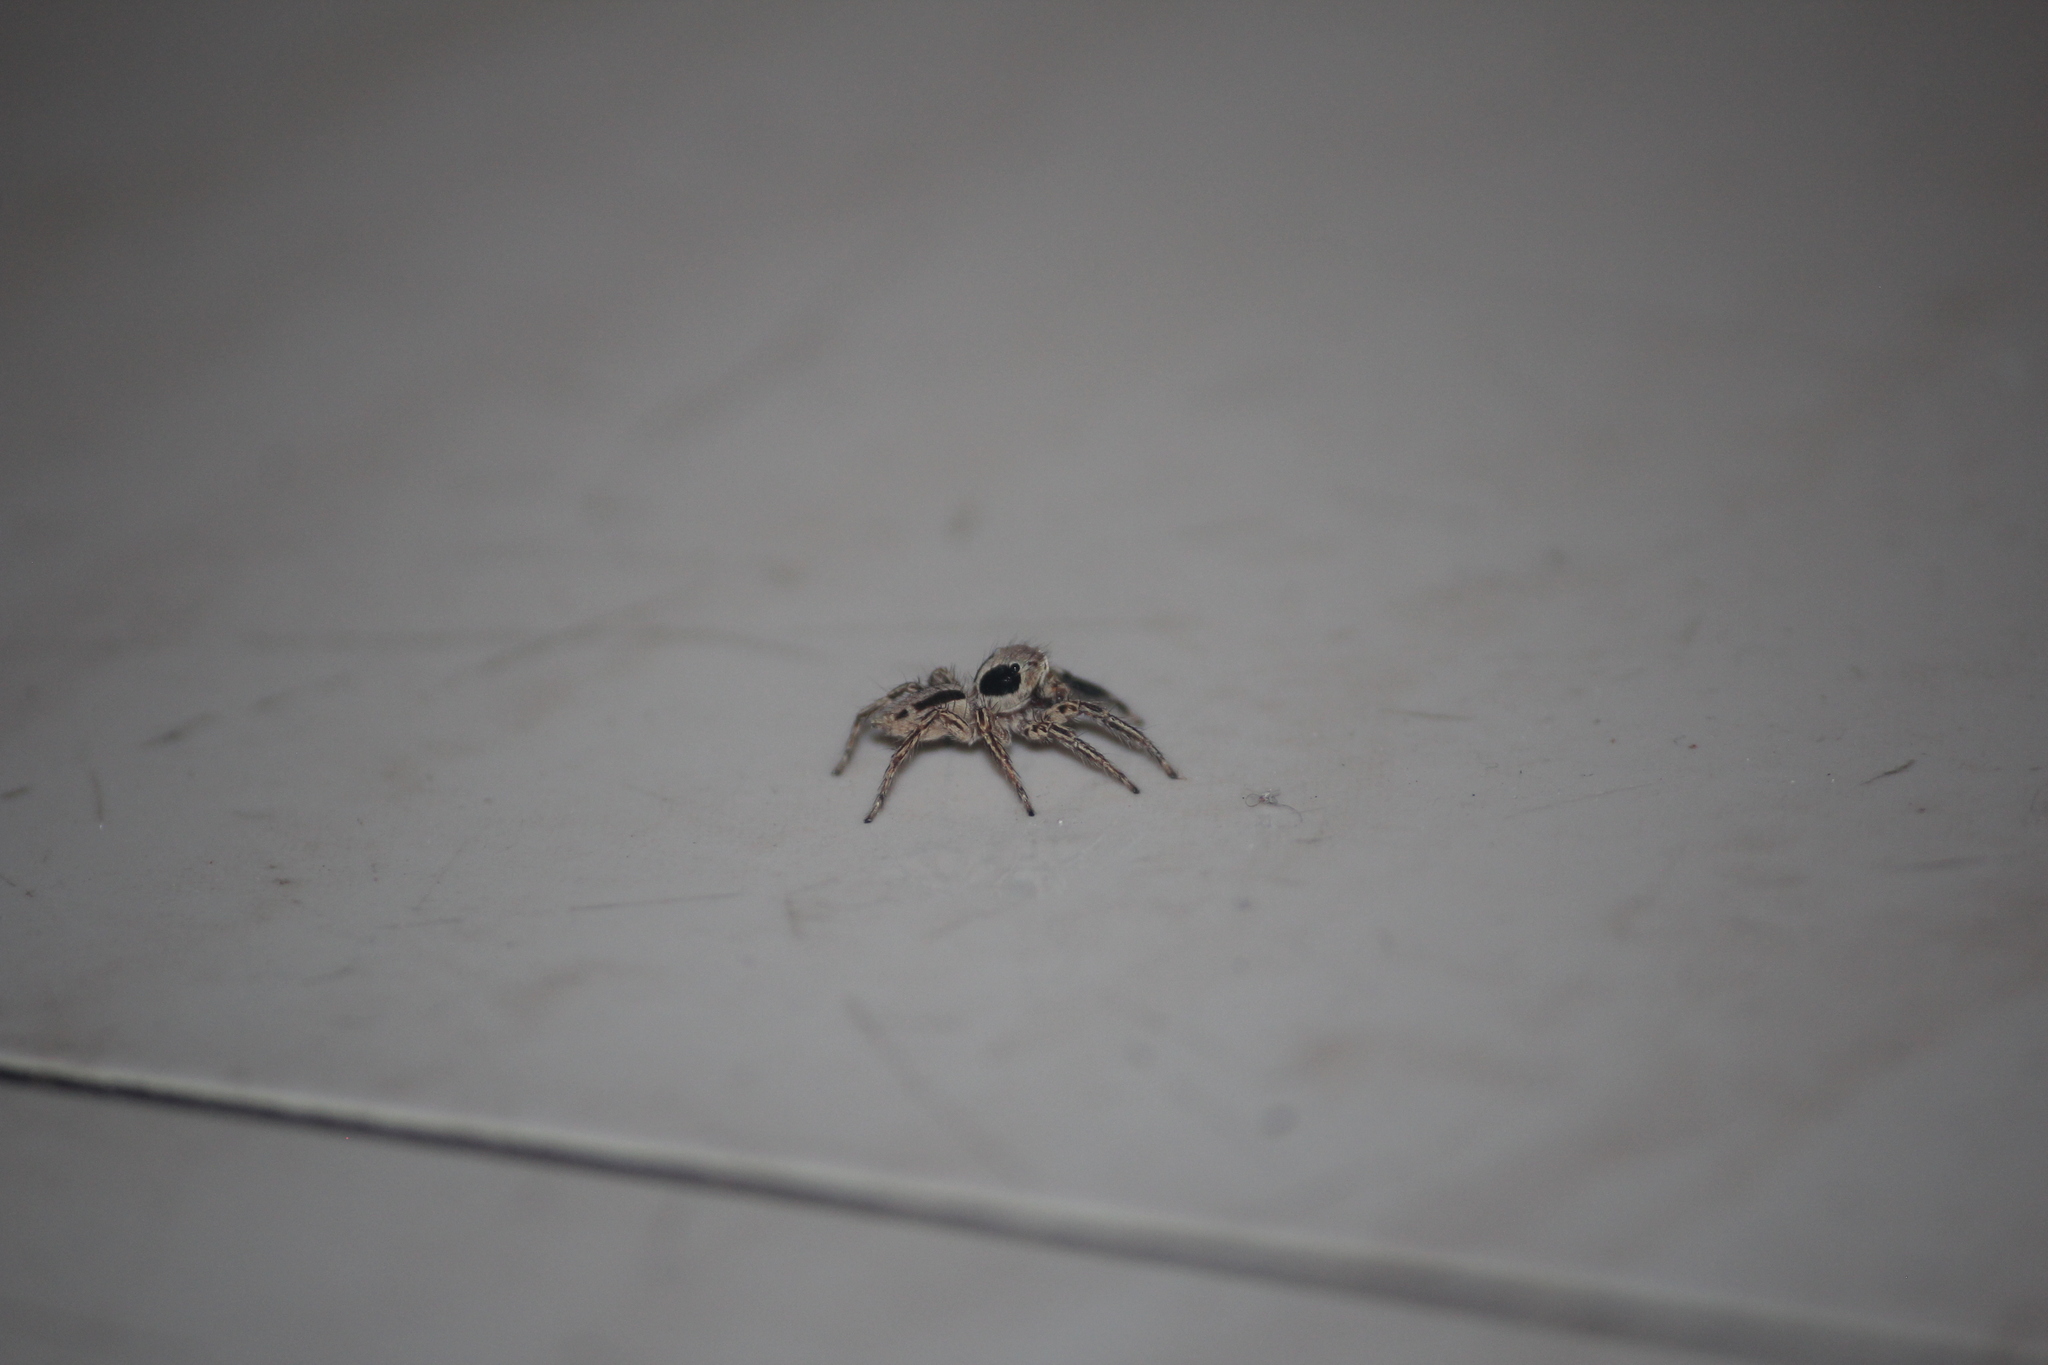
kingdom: Animalia
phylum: Arthropoda
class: Arachnida
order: Araneae
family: Salticidae
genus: Plexippus
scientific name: Plexippus paykulli
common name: Pantropical jumper
